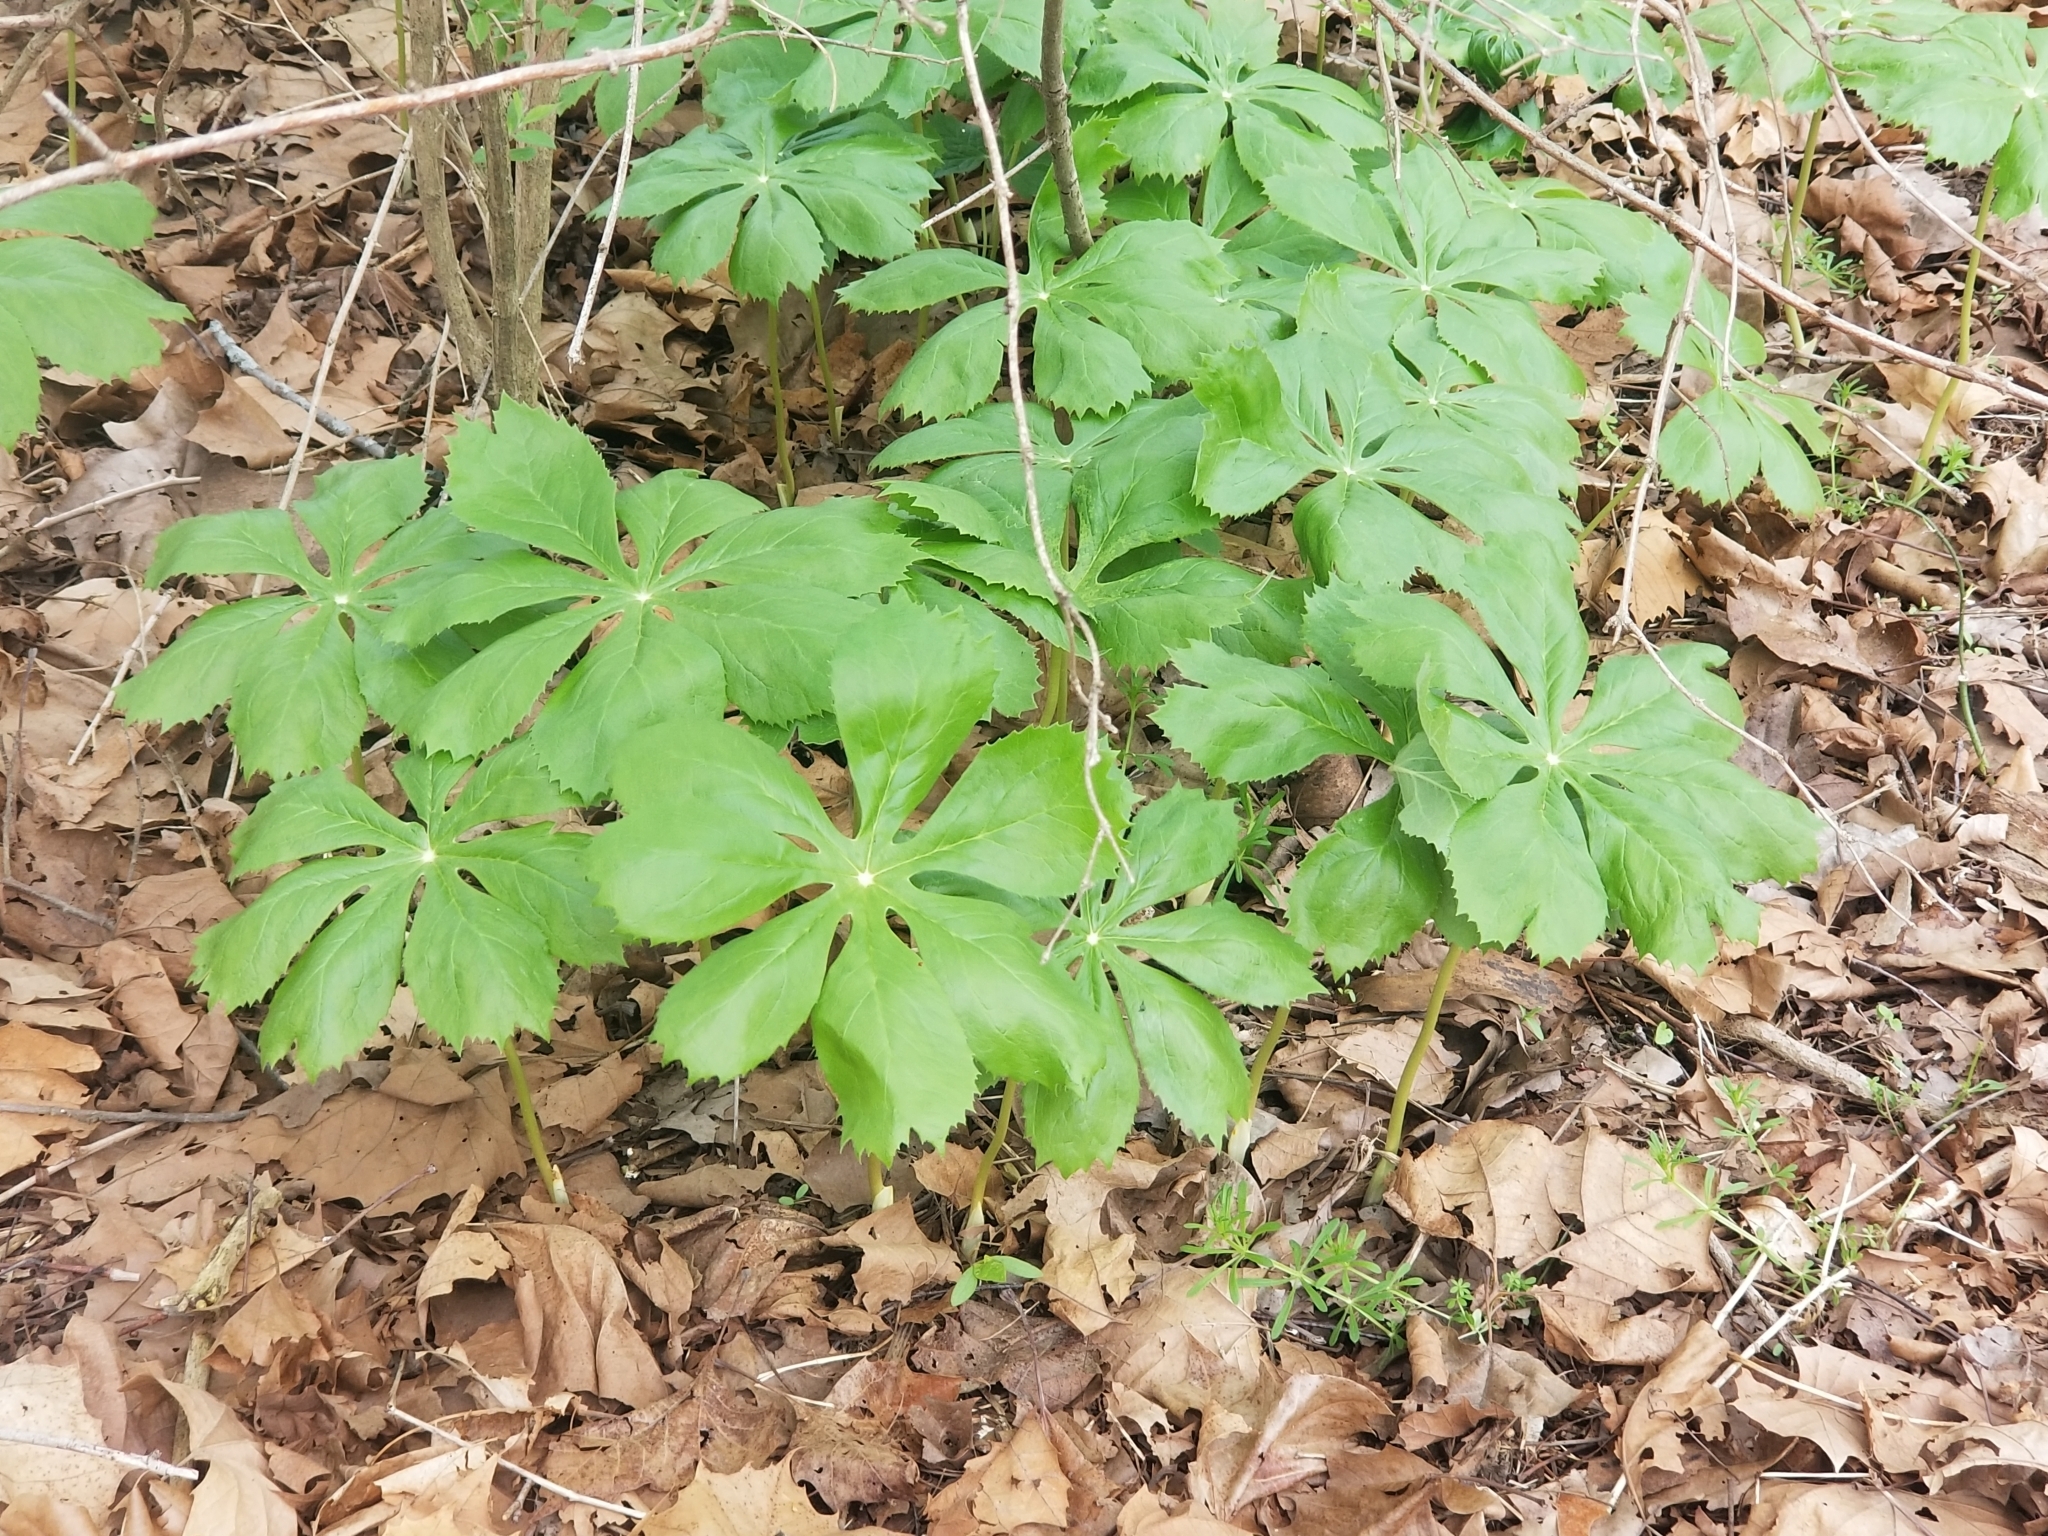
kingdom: Plantae
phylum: Tracheophyta
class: Magnoliopsida
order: Ranunculales
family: Berberidaceae
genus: Podophyllum
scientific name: Podophyllum peltatum
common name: Wild mandrake
